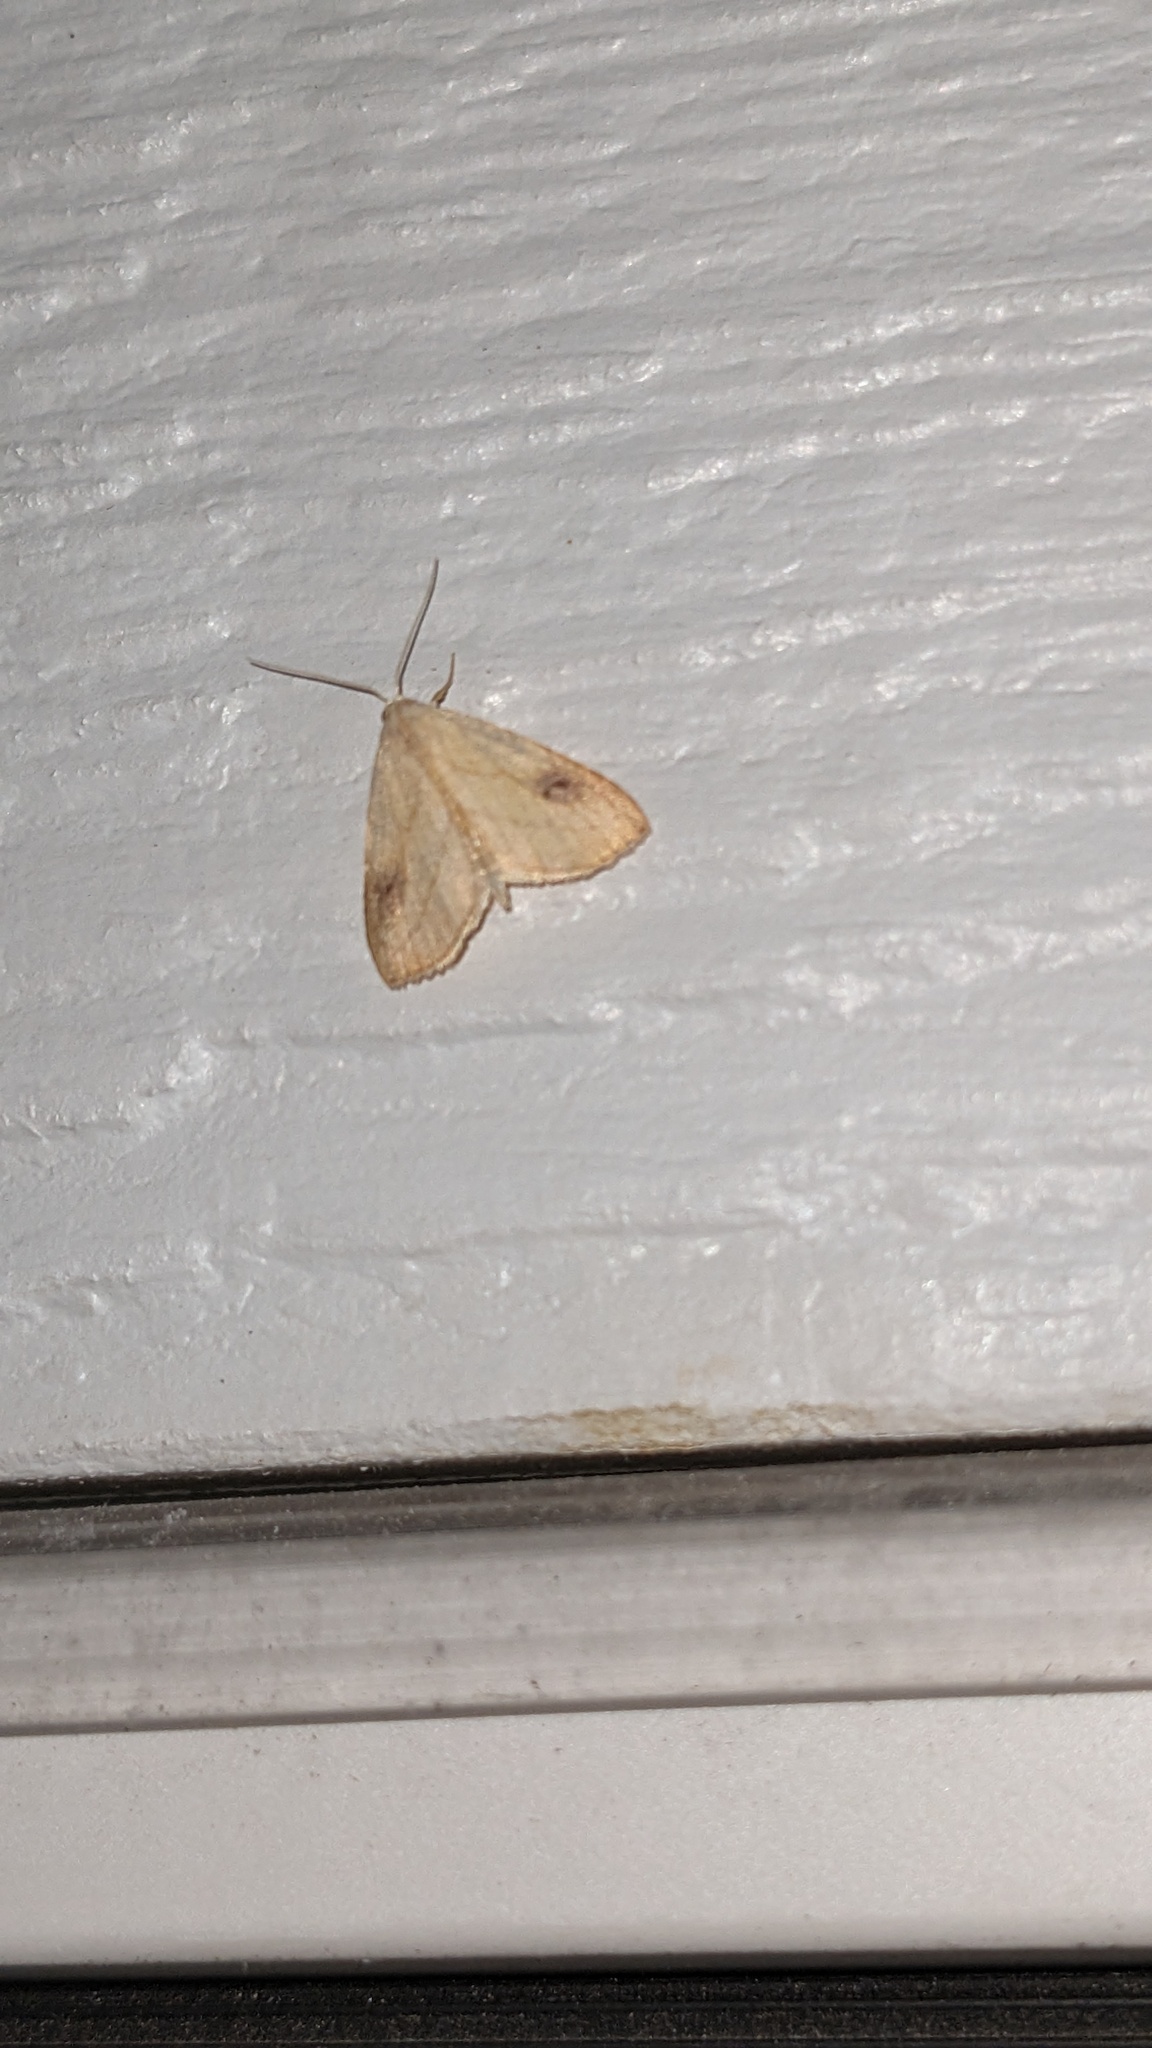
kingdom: Animalia
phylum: Arthropoda
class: Insecta
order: Lepidoptera
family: Erebidae
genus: Rivula
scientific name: Rivula propinqualis
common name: Spotted grass moth
